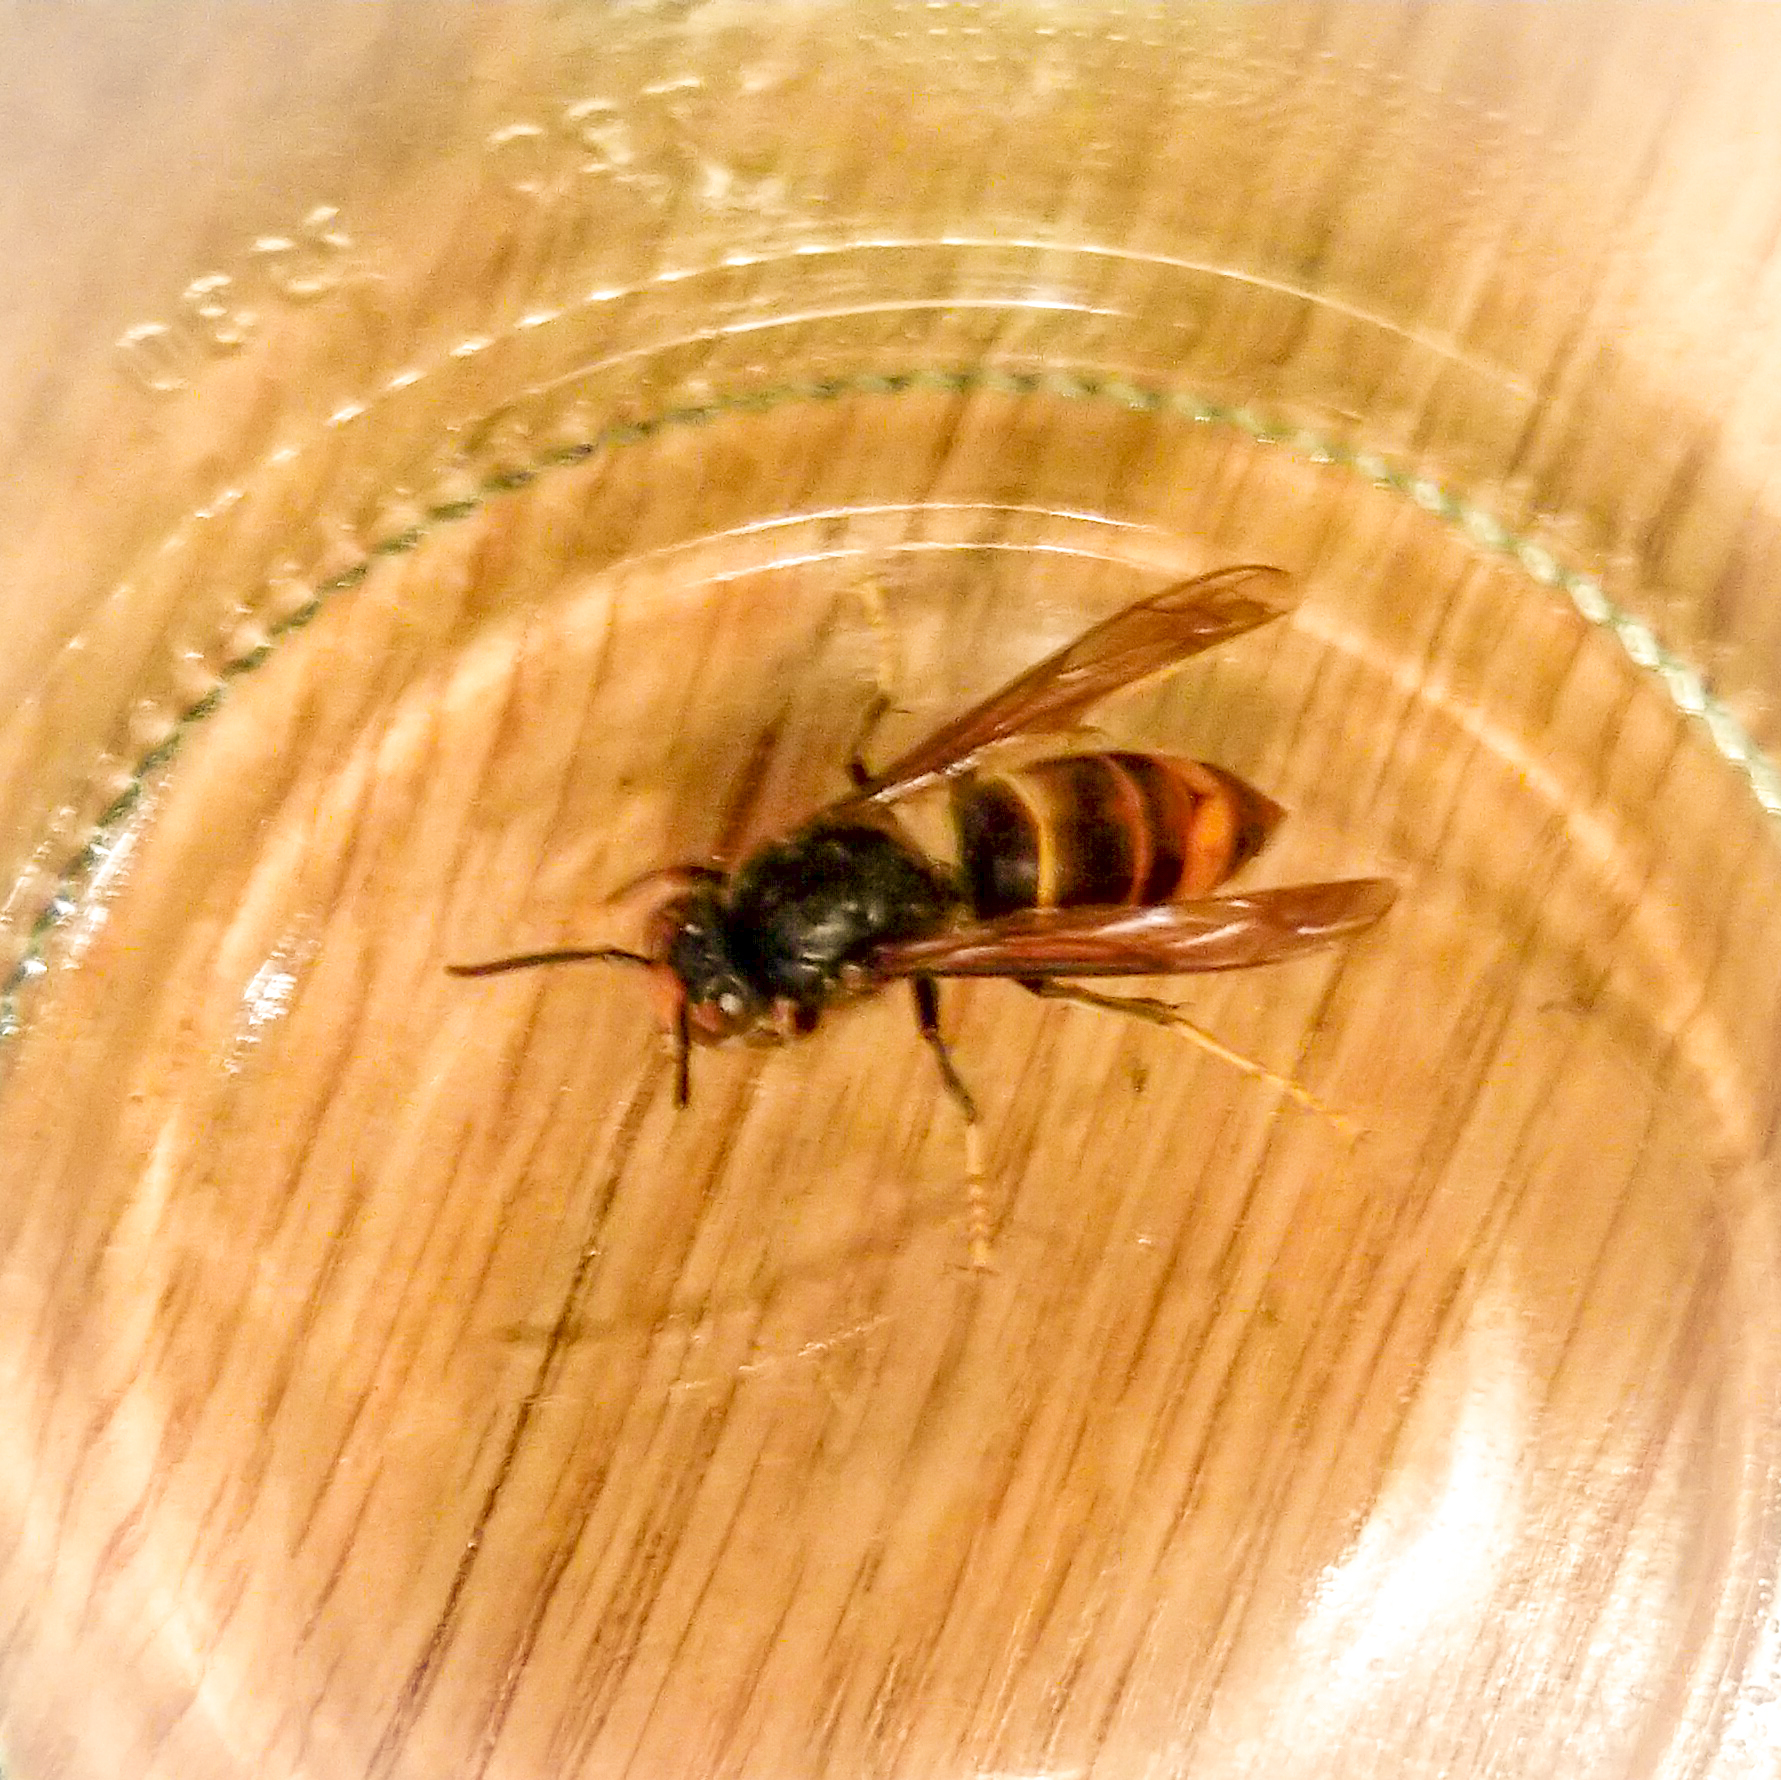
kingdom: Animalia
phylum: Arthropoda
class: Insecta
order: Hymenoptera
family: Vespidae
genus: Vespa
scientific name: Vespa velutina
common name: Asian hornet
